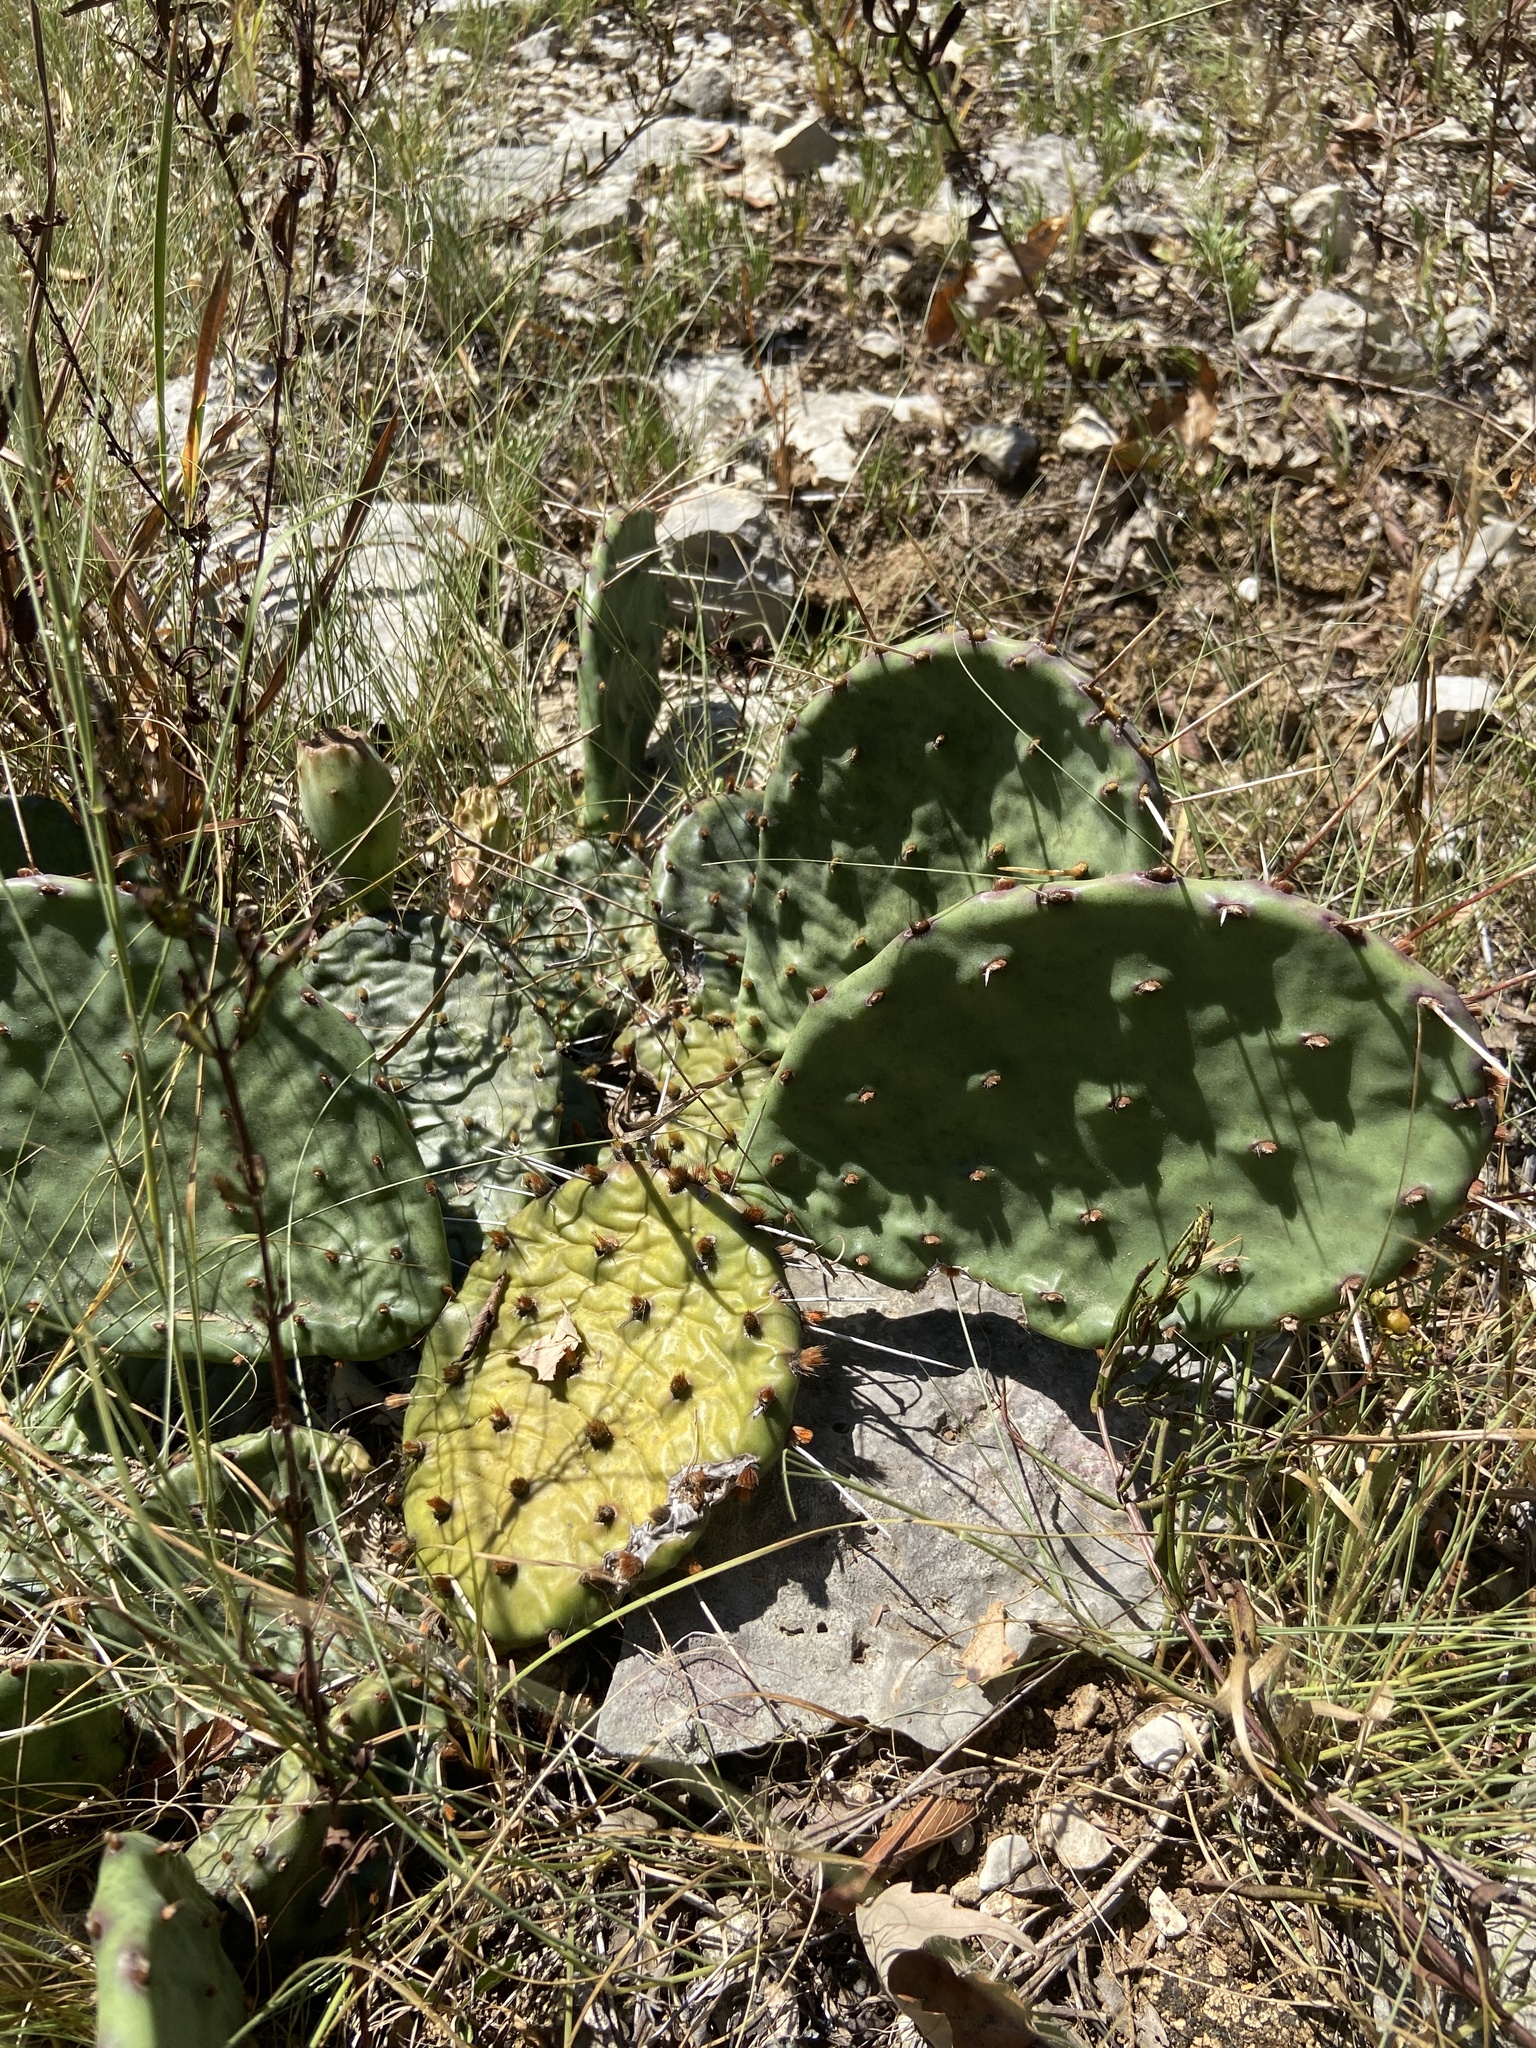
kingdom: Plantae
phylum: Tracheophyta
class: Magnoliopsida
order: Caryophyllales
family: Cactaceae
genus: Opuntia
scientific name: Opuntia humifusa
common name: Eastern prickly-pear
